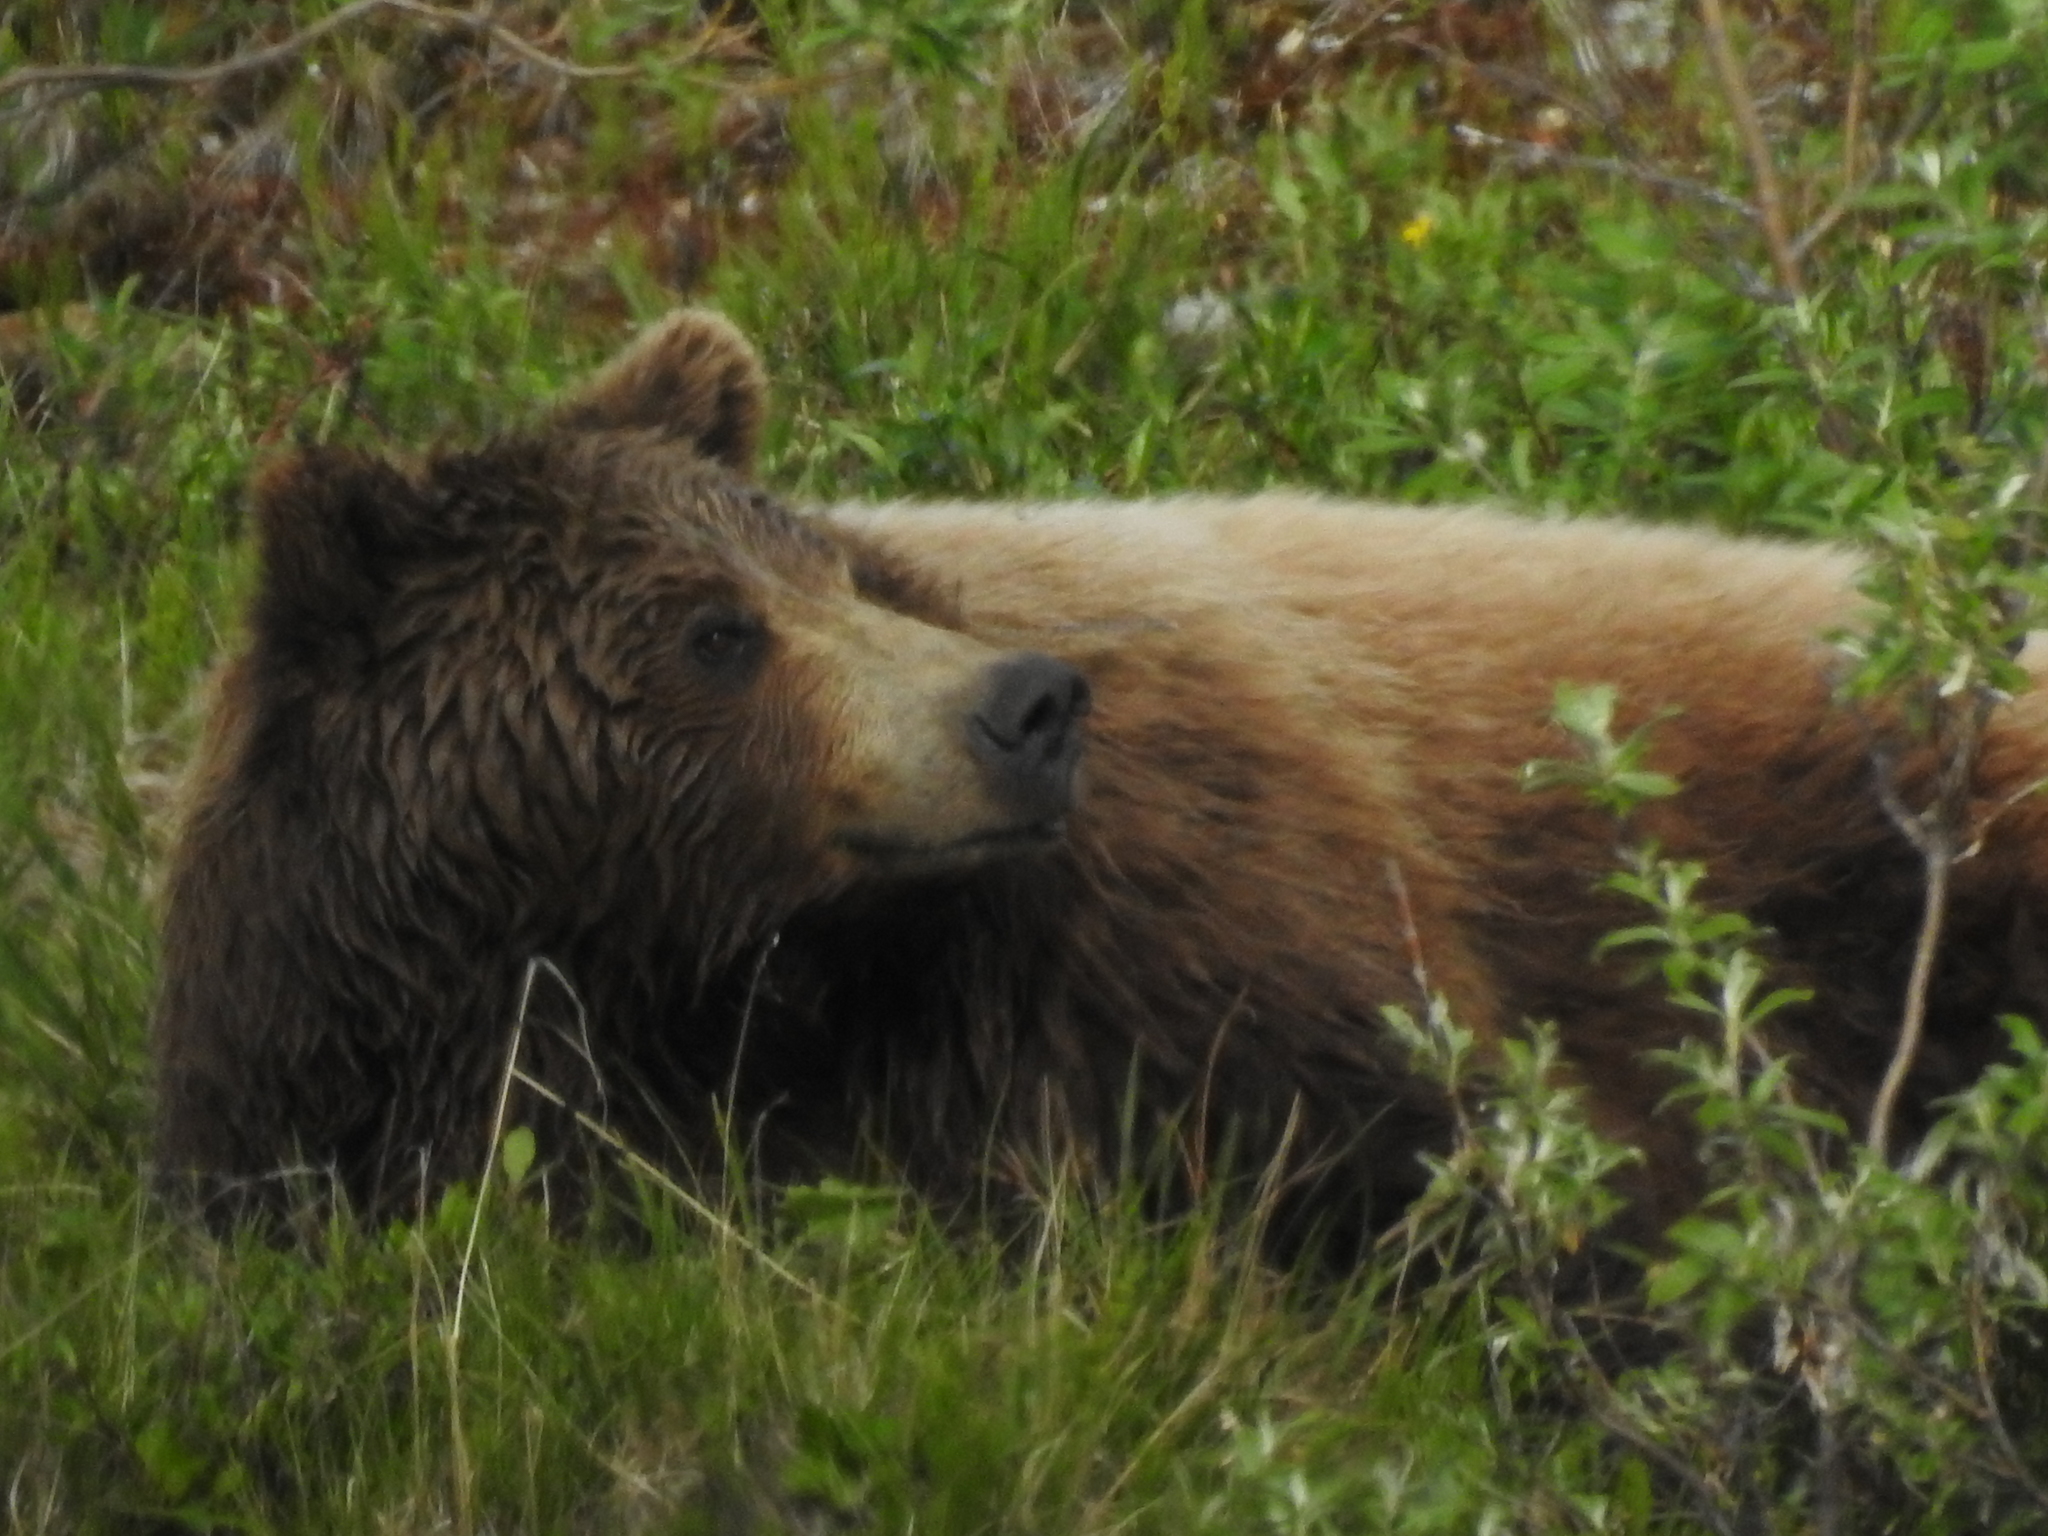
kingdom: Animalia
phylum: Chordata
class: Mammalia
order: Carnivora
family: Ursidae
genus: Ursus
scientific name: Ursus arctos
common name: Brown bear
